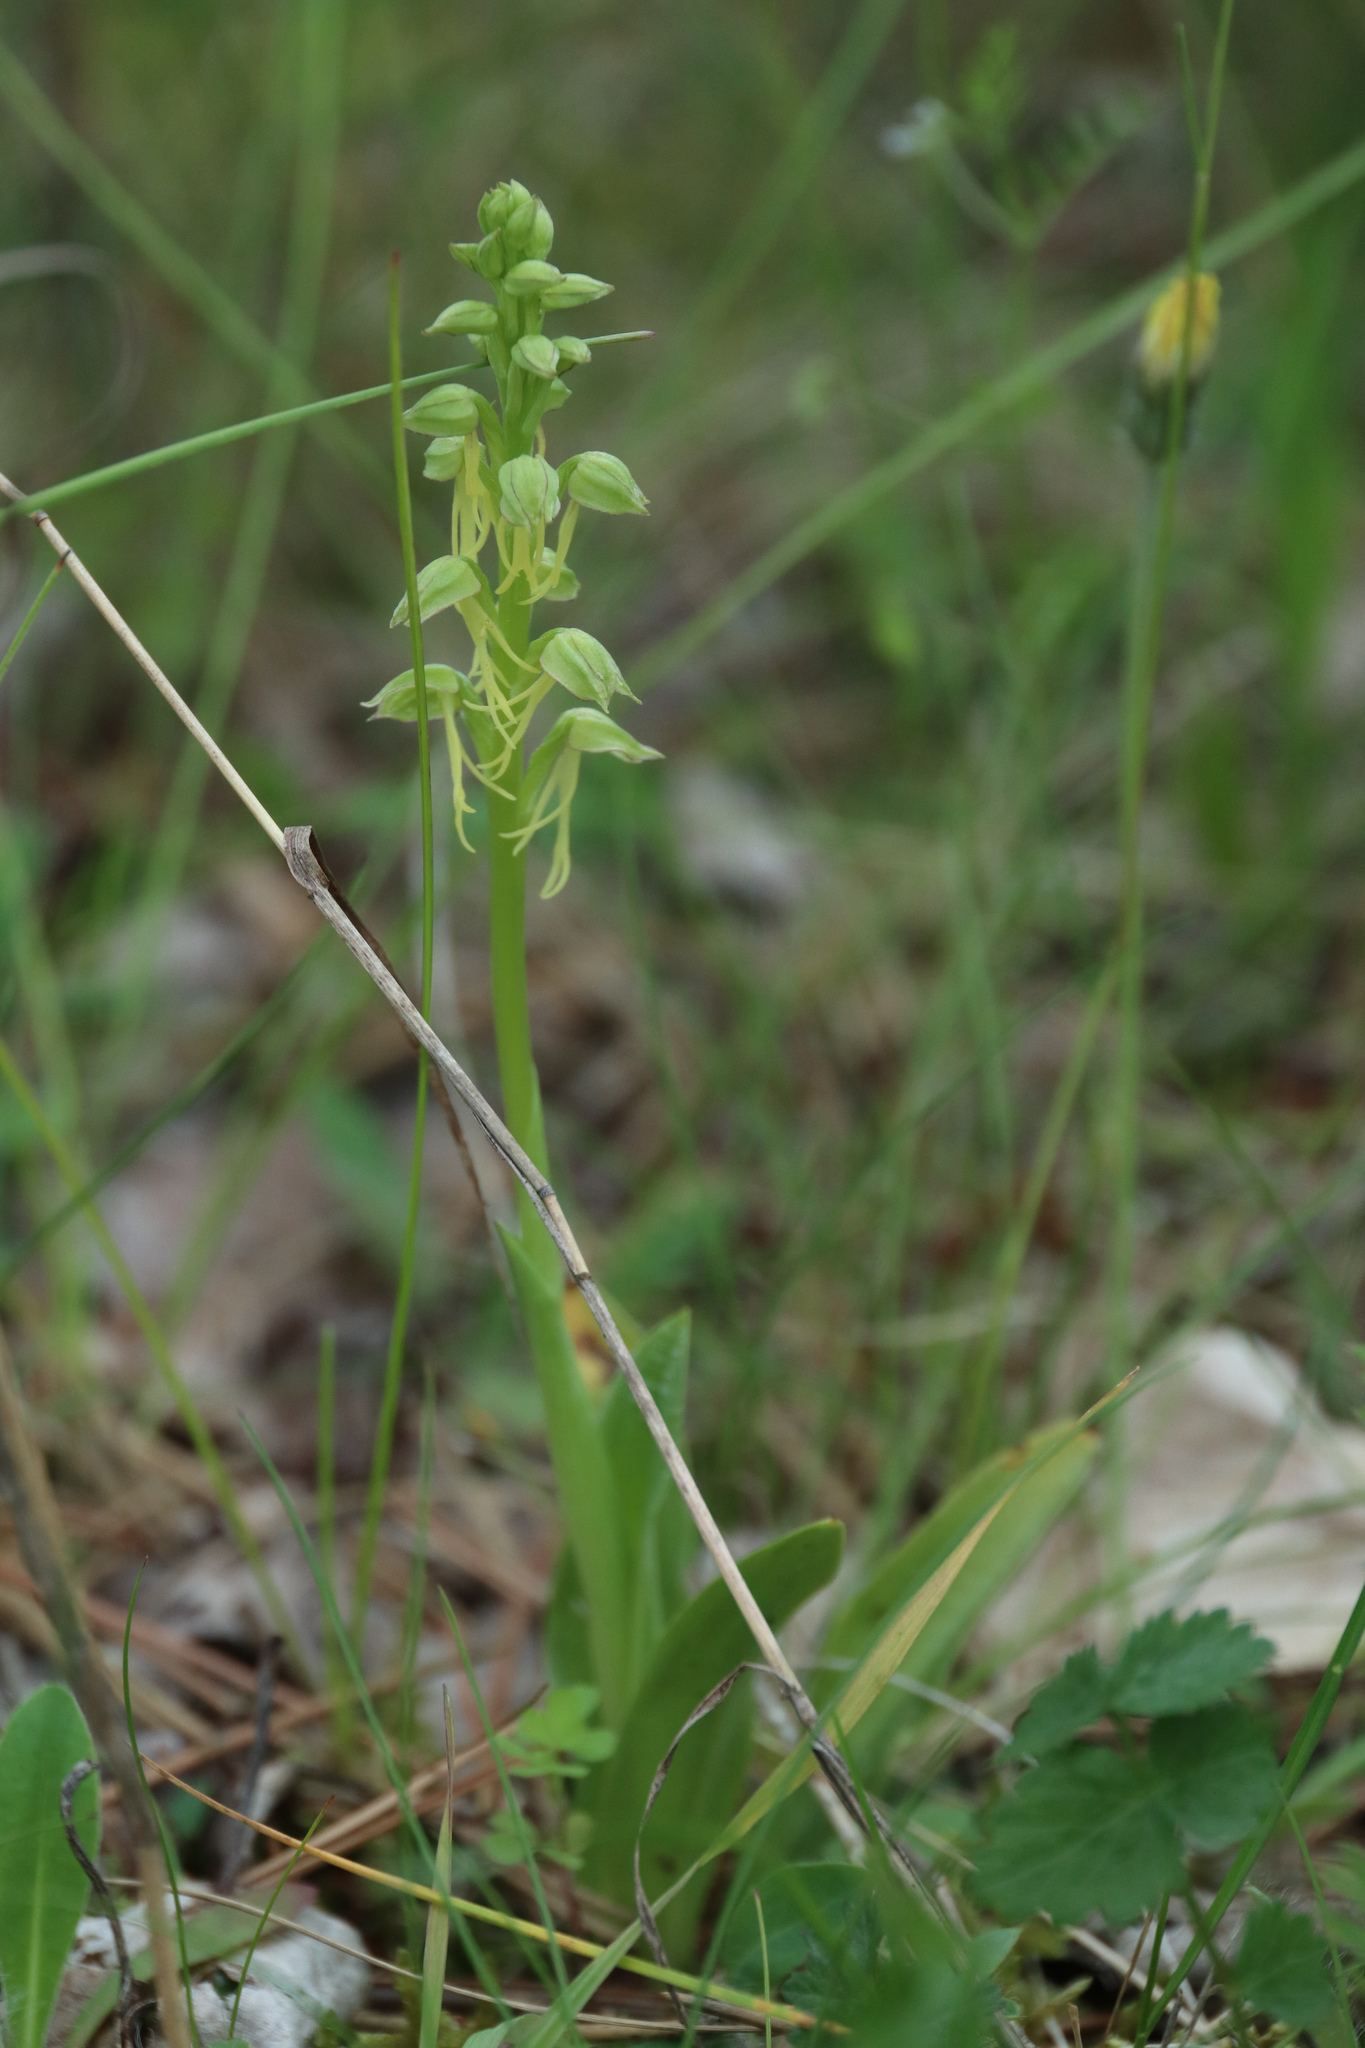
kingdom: Plantae
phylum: Tracheophyta
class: Liliopsida
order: Asparagales
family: Orchidaceae
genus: Orchis
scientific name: Orchis anthropophora
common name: Man orchid
